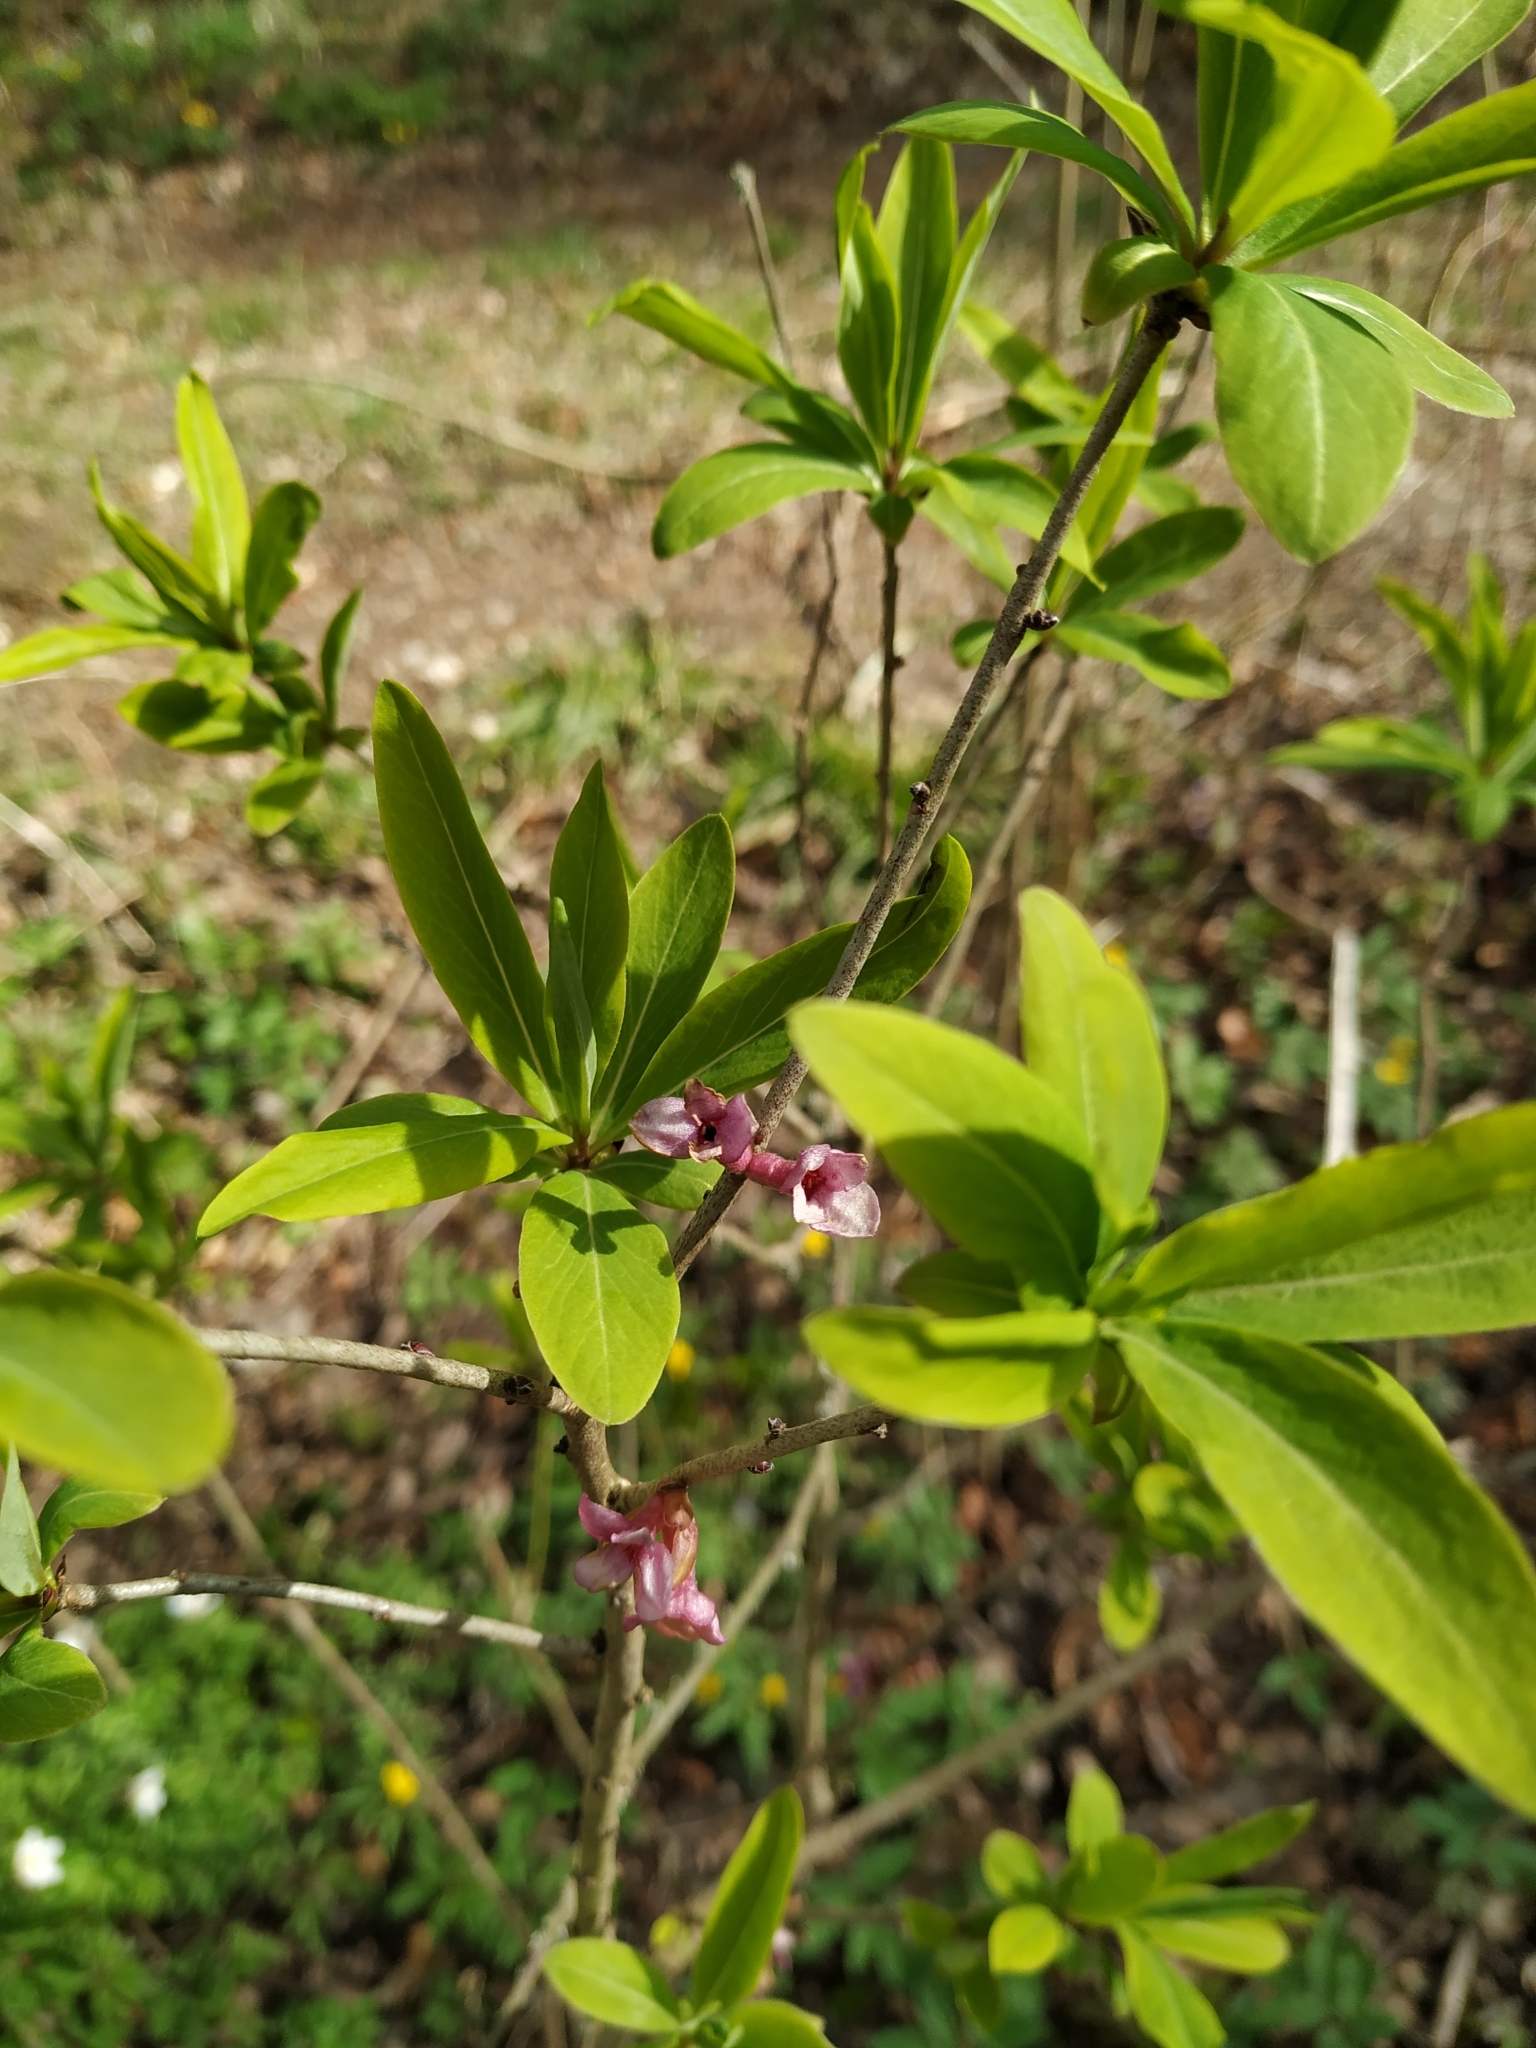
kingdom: Plantae
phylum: Tracheophyta
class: Magnoliopsida
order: Malvales
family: Thymelaeaceae
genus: Daphne
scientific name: Daphne mezereum
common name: Mezereon
